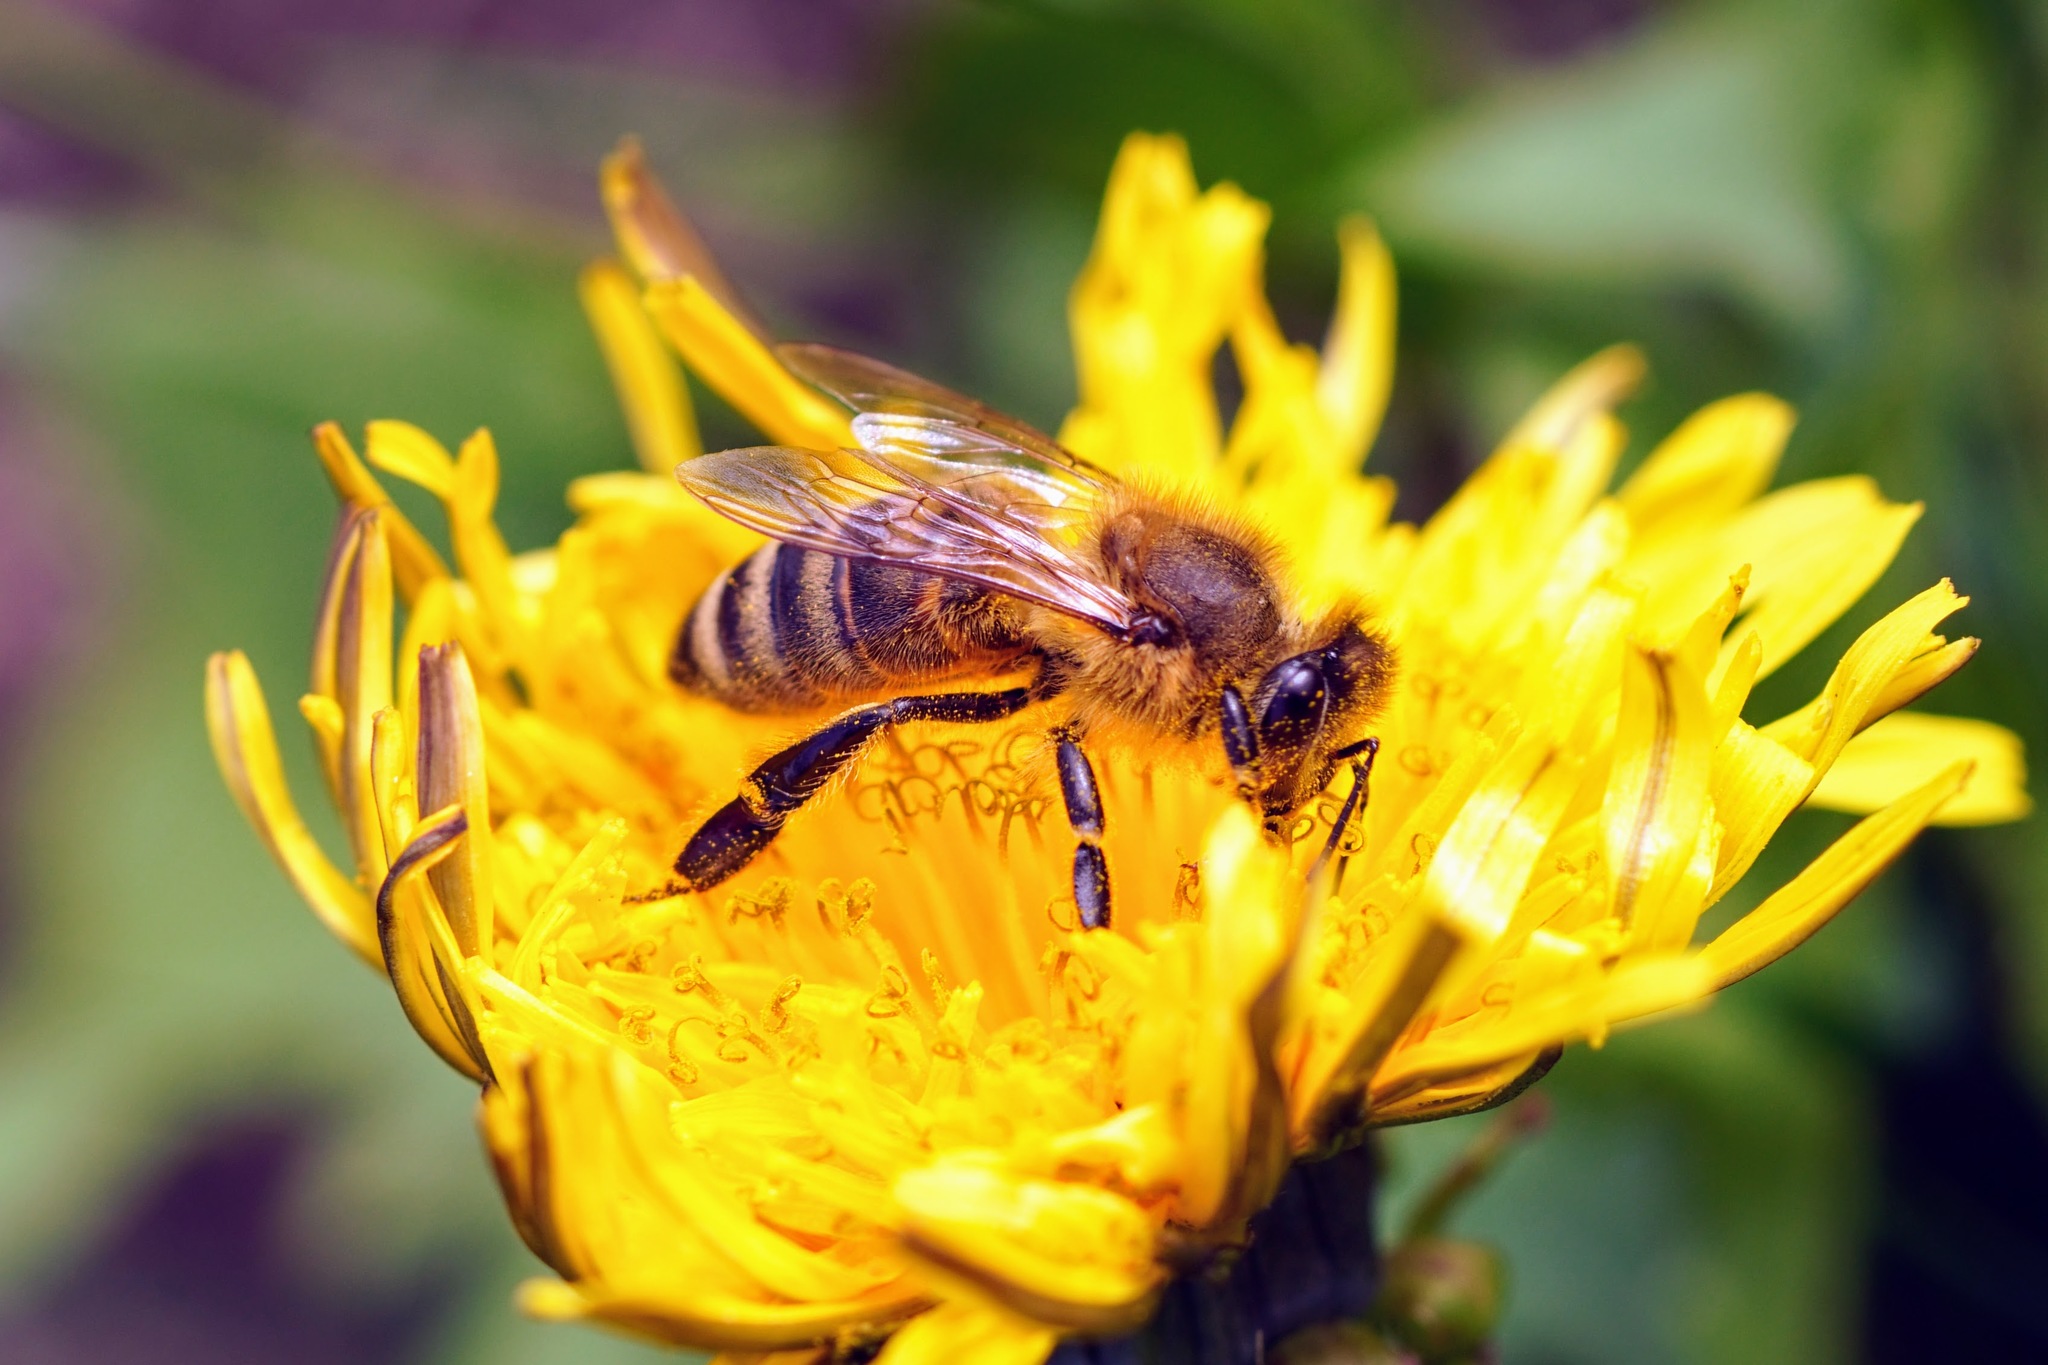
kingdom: Animalia
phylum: Arthropoda
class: Insecta
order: Hymenoptera
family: Apidae
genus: Apis
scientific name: Apis mellifera
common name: Honey bee
